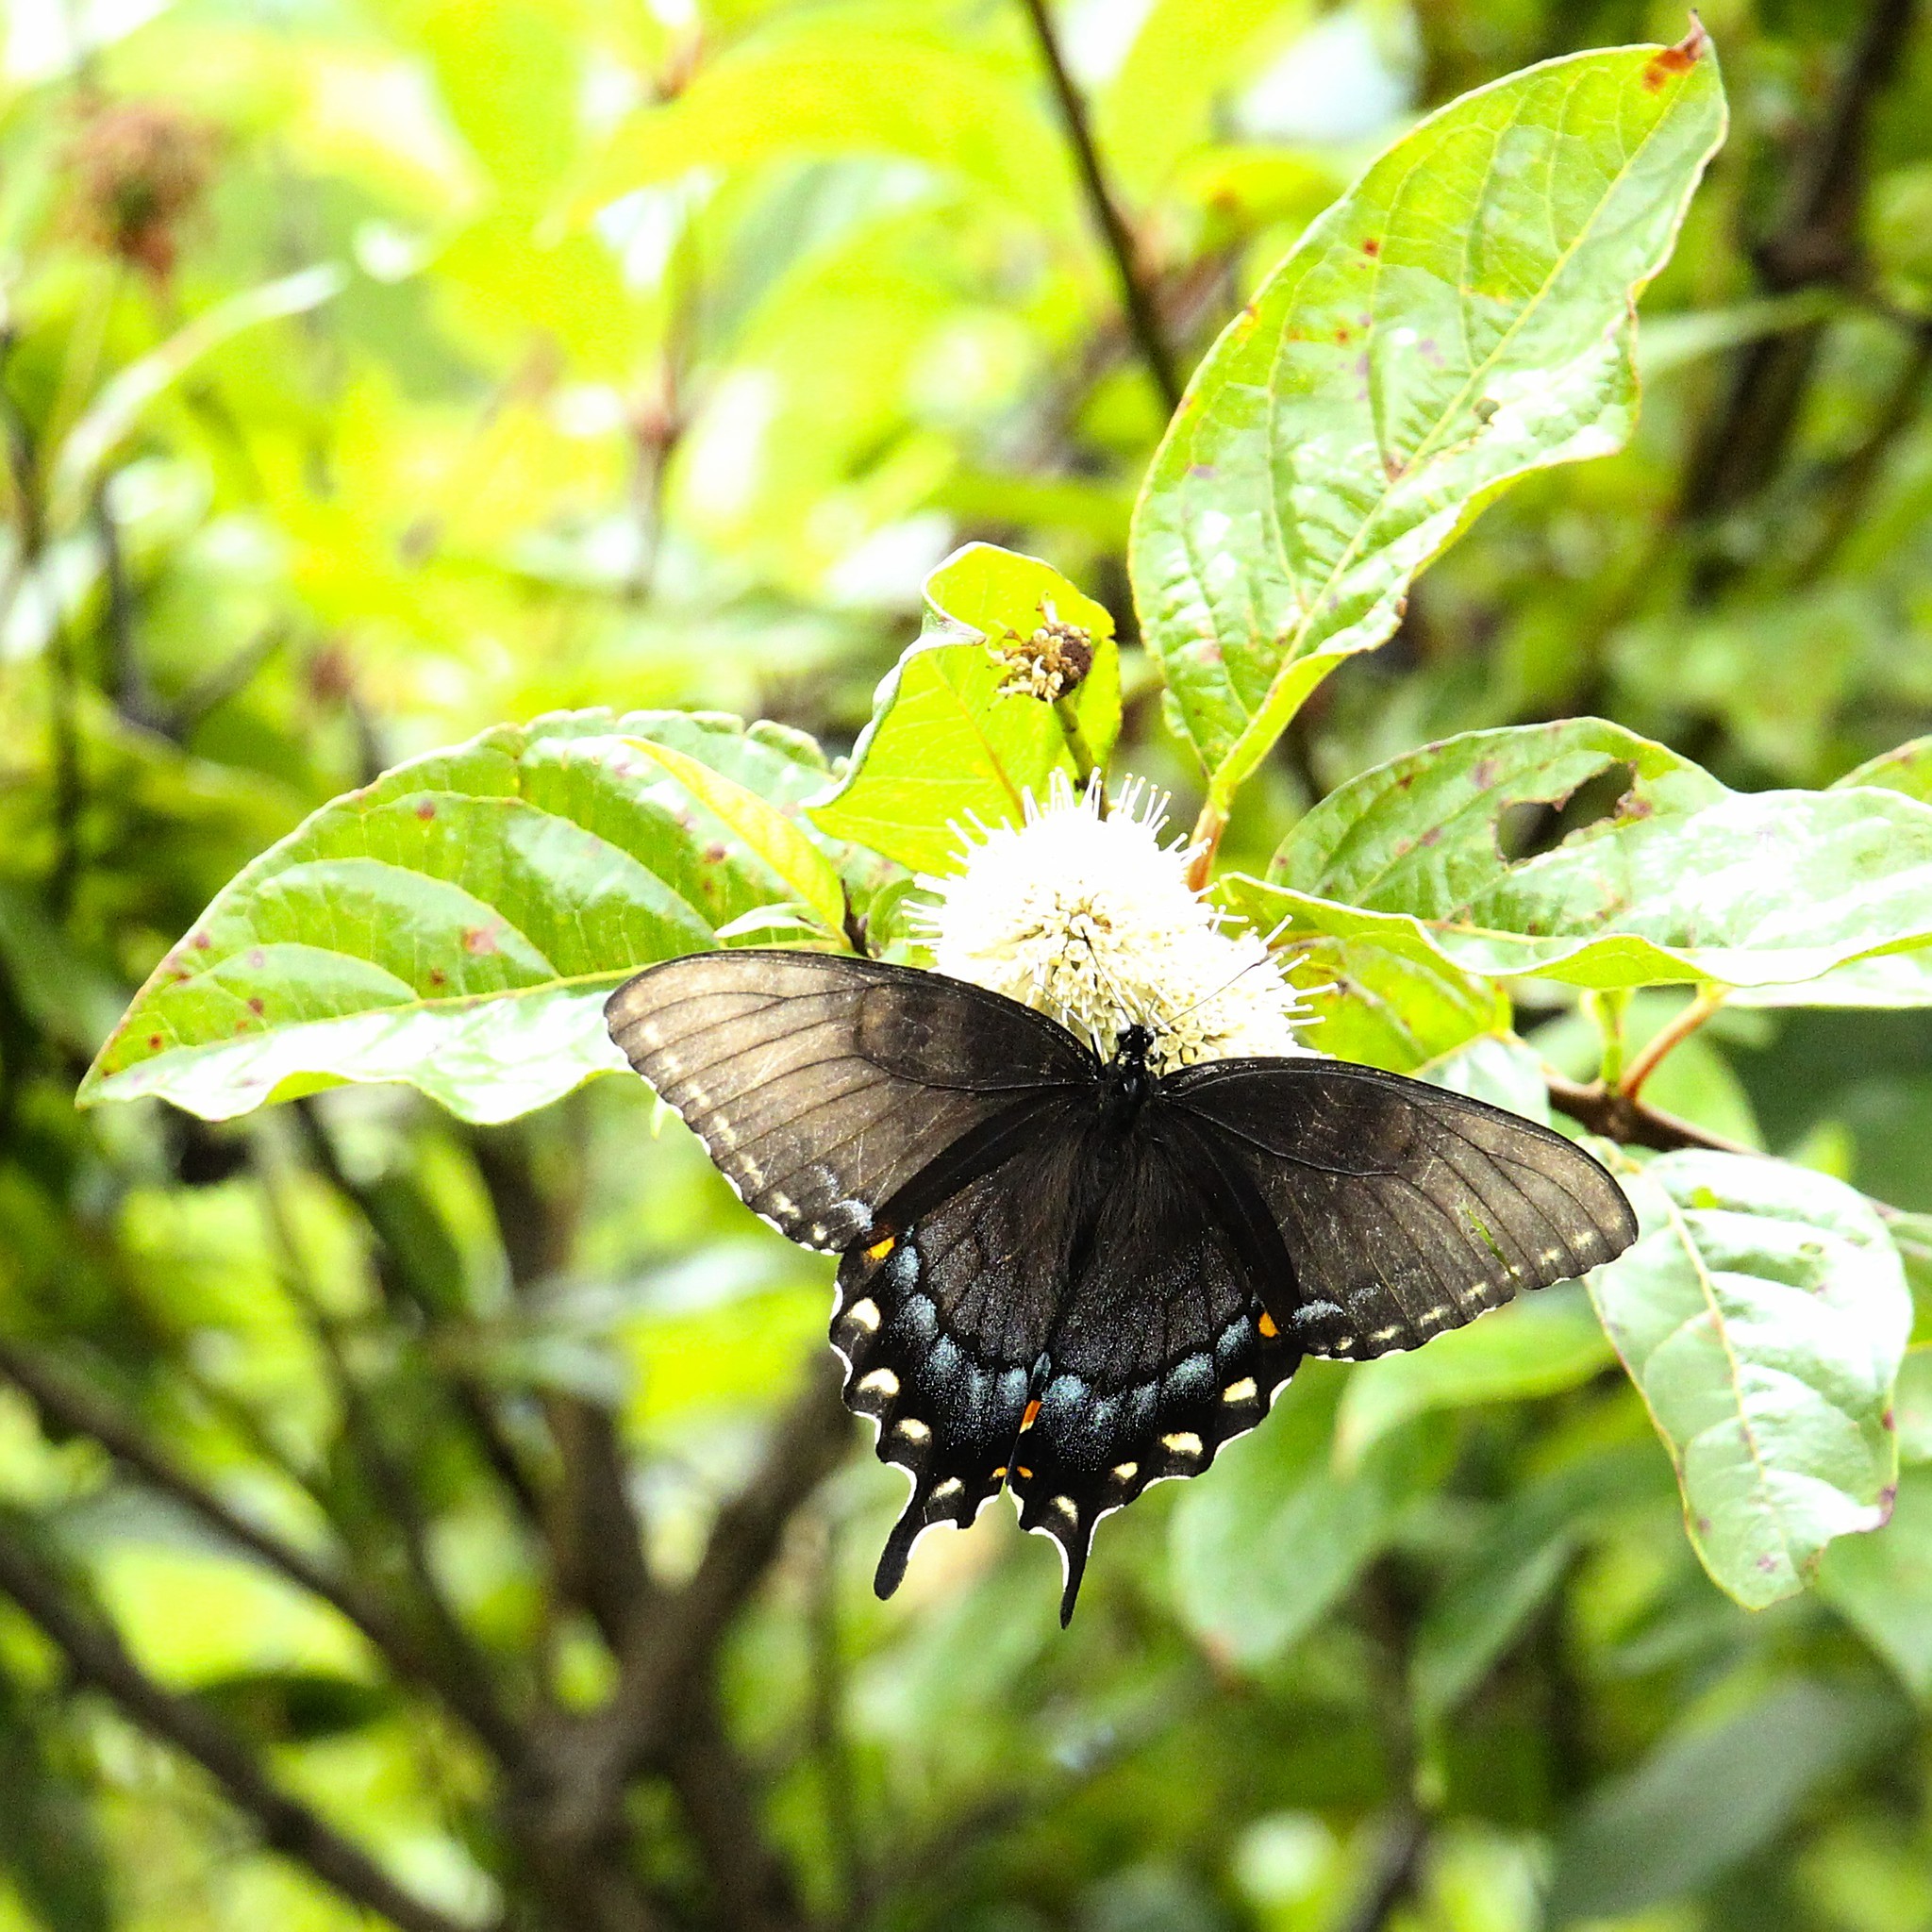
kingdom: Animalia
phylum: Arthropoda
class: Insecta
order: Lepidoptera
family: Papilionidae
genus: Papilio
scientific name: Papilio glaucus
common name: Tiger swallowtail
